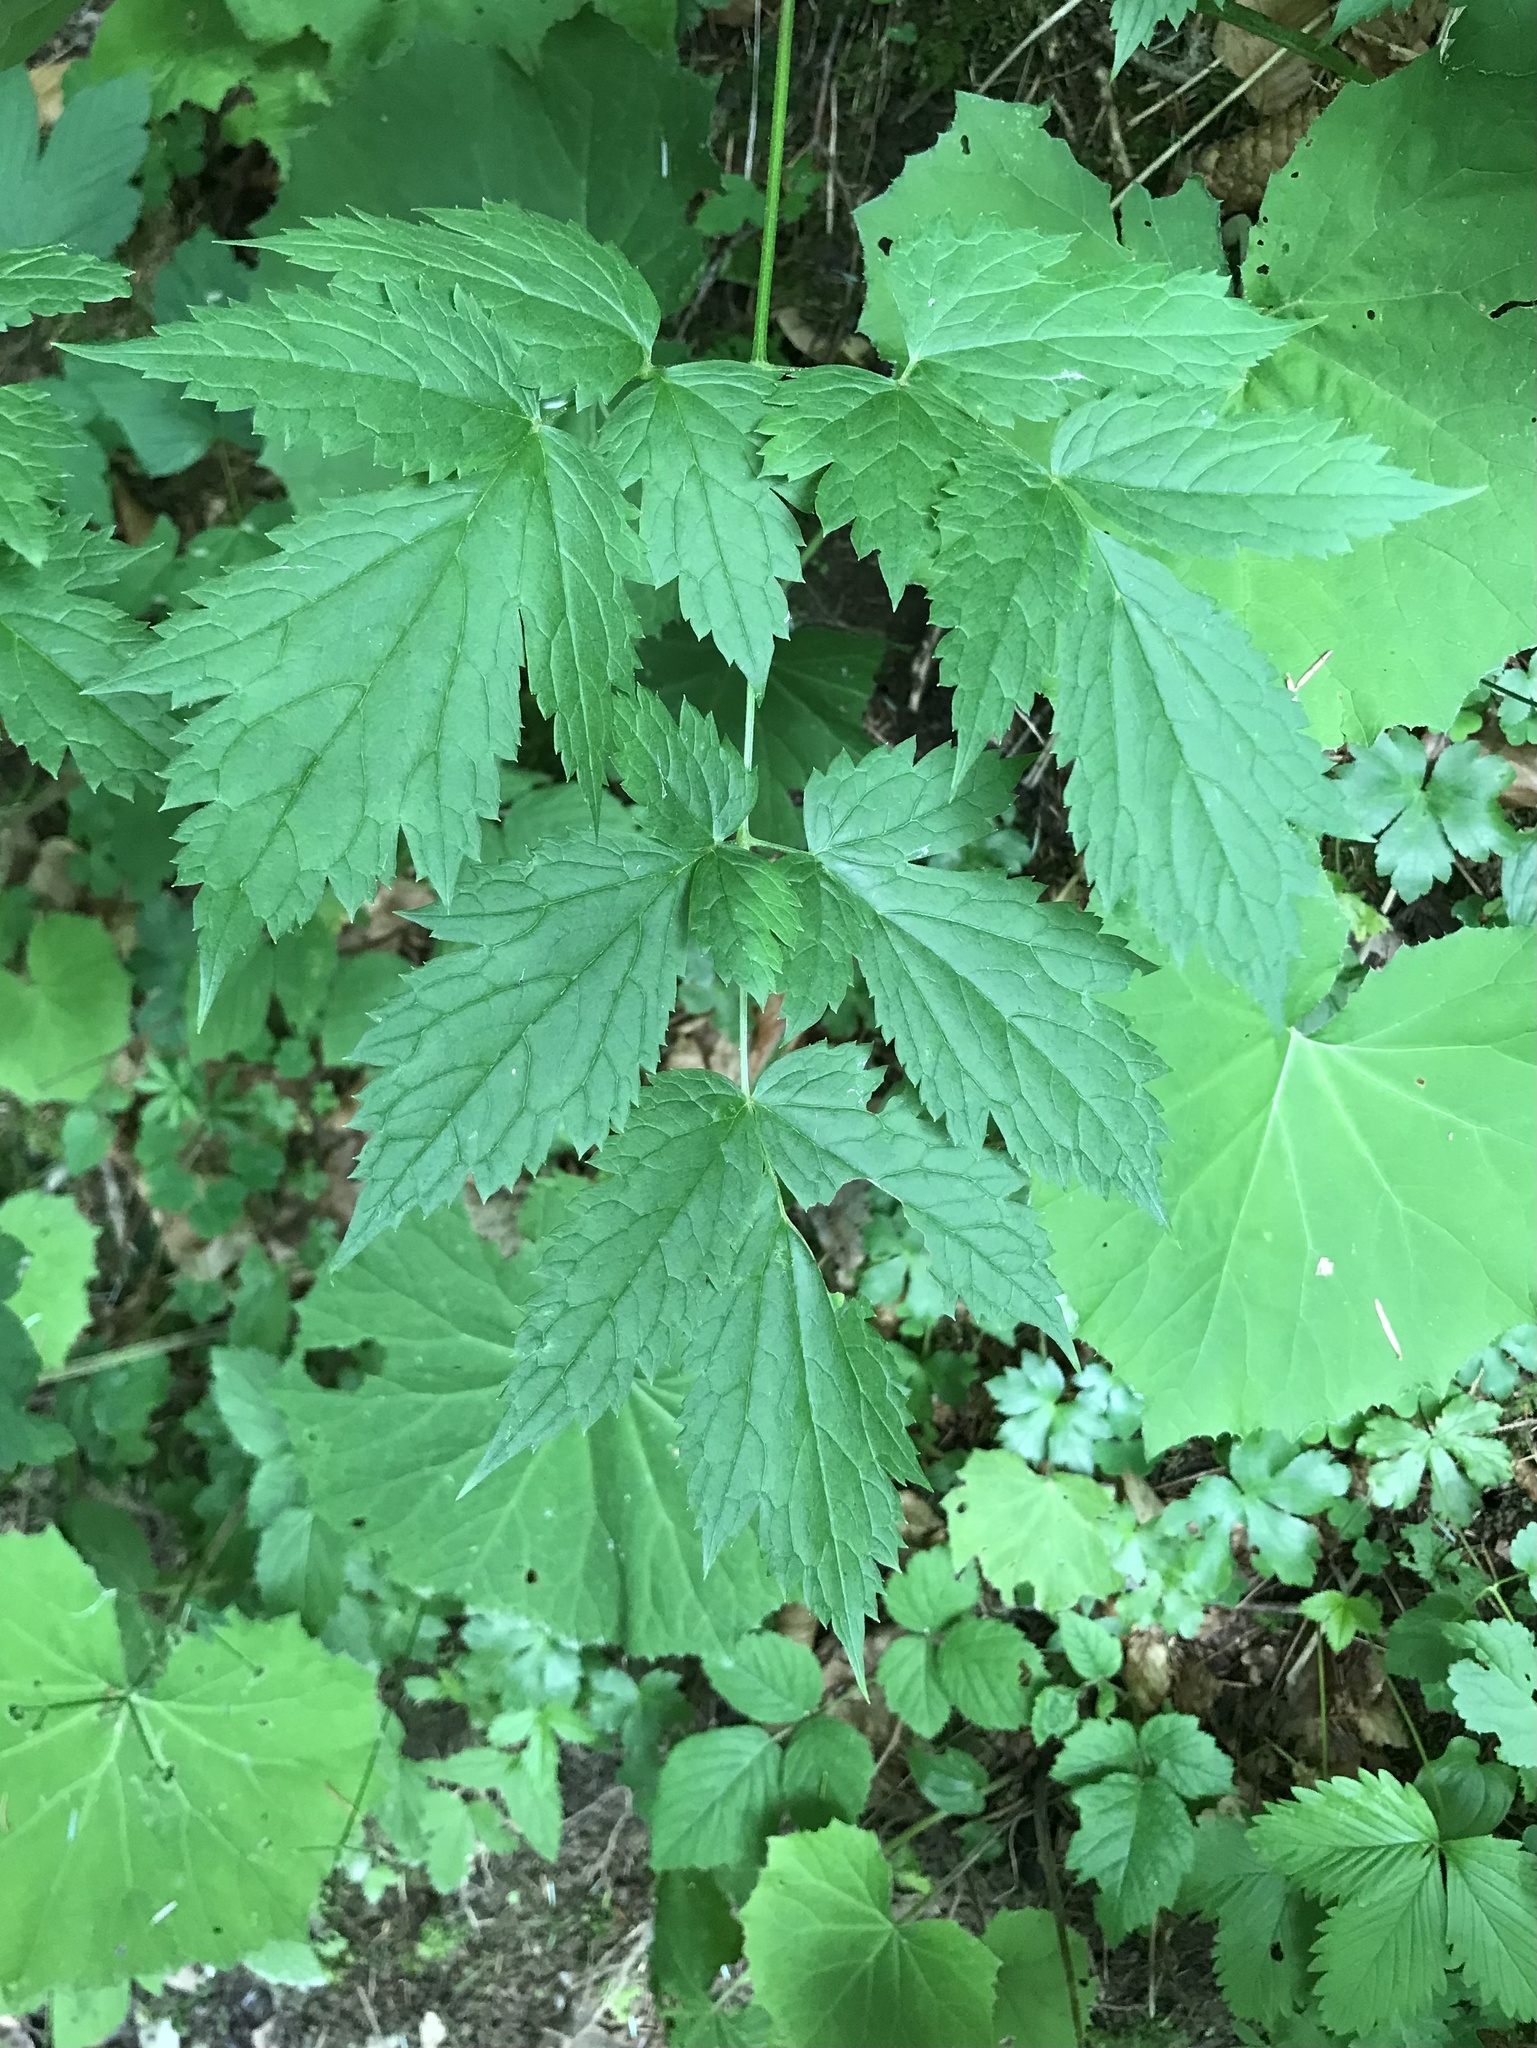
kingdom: Plantae
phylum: Tracheophyta
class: Magnoliopsida
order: Ranunculales
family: Ranunculaceae
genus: Actaea
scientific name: Actaea spicata
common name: Baneberry
